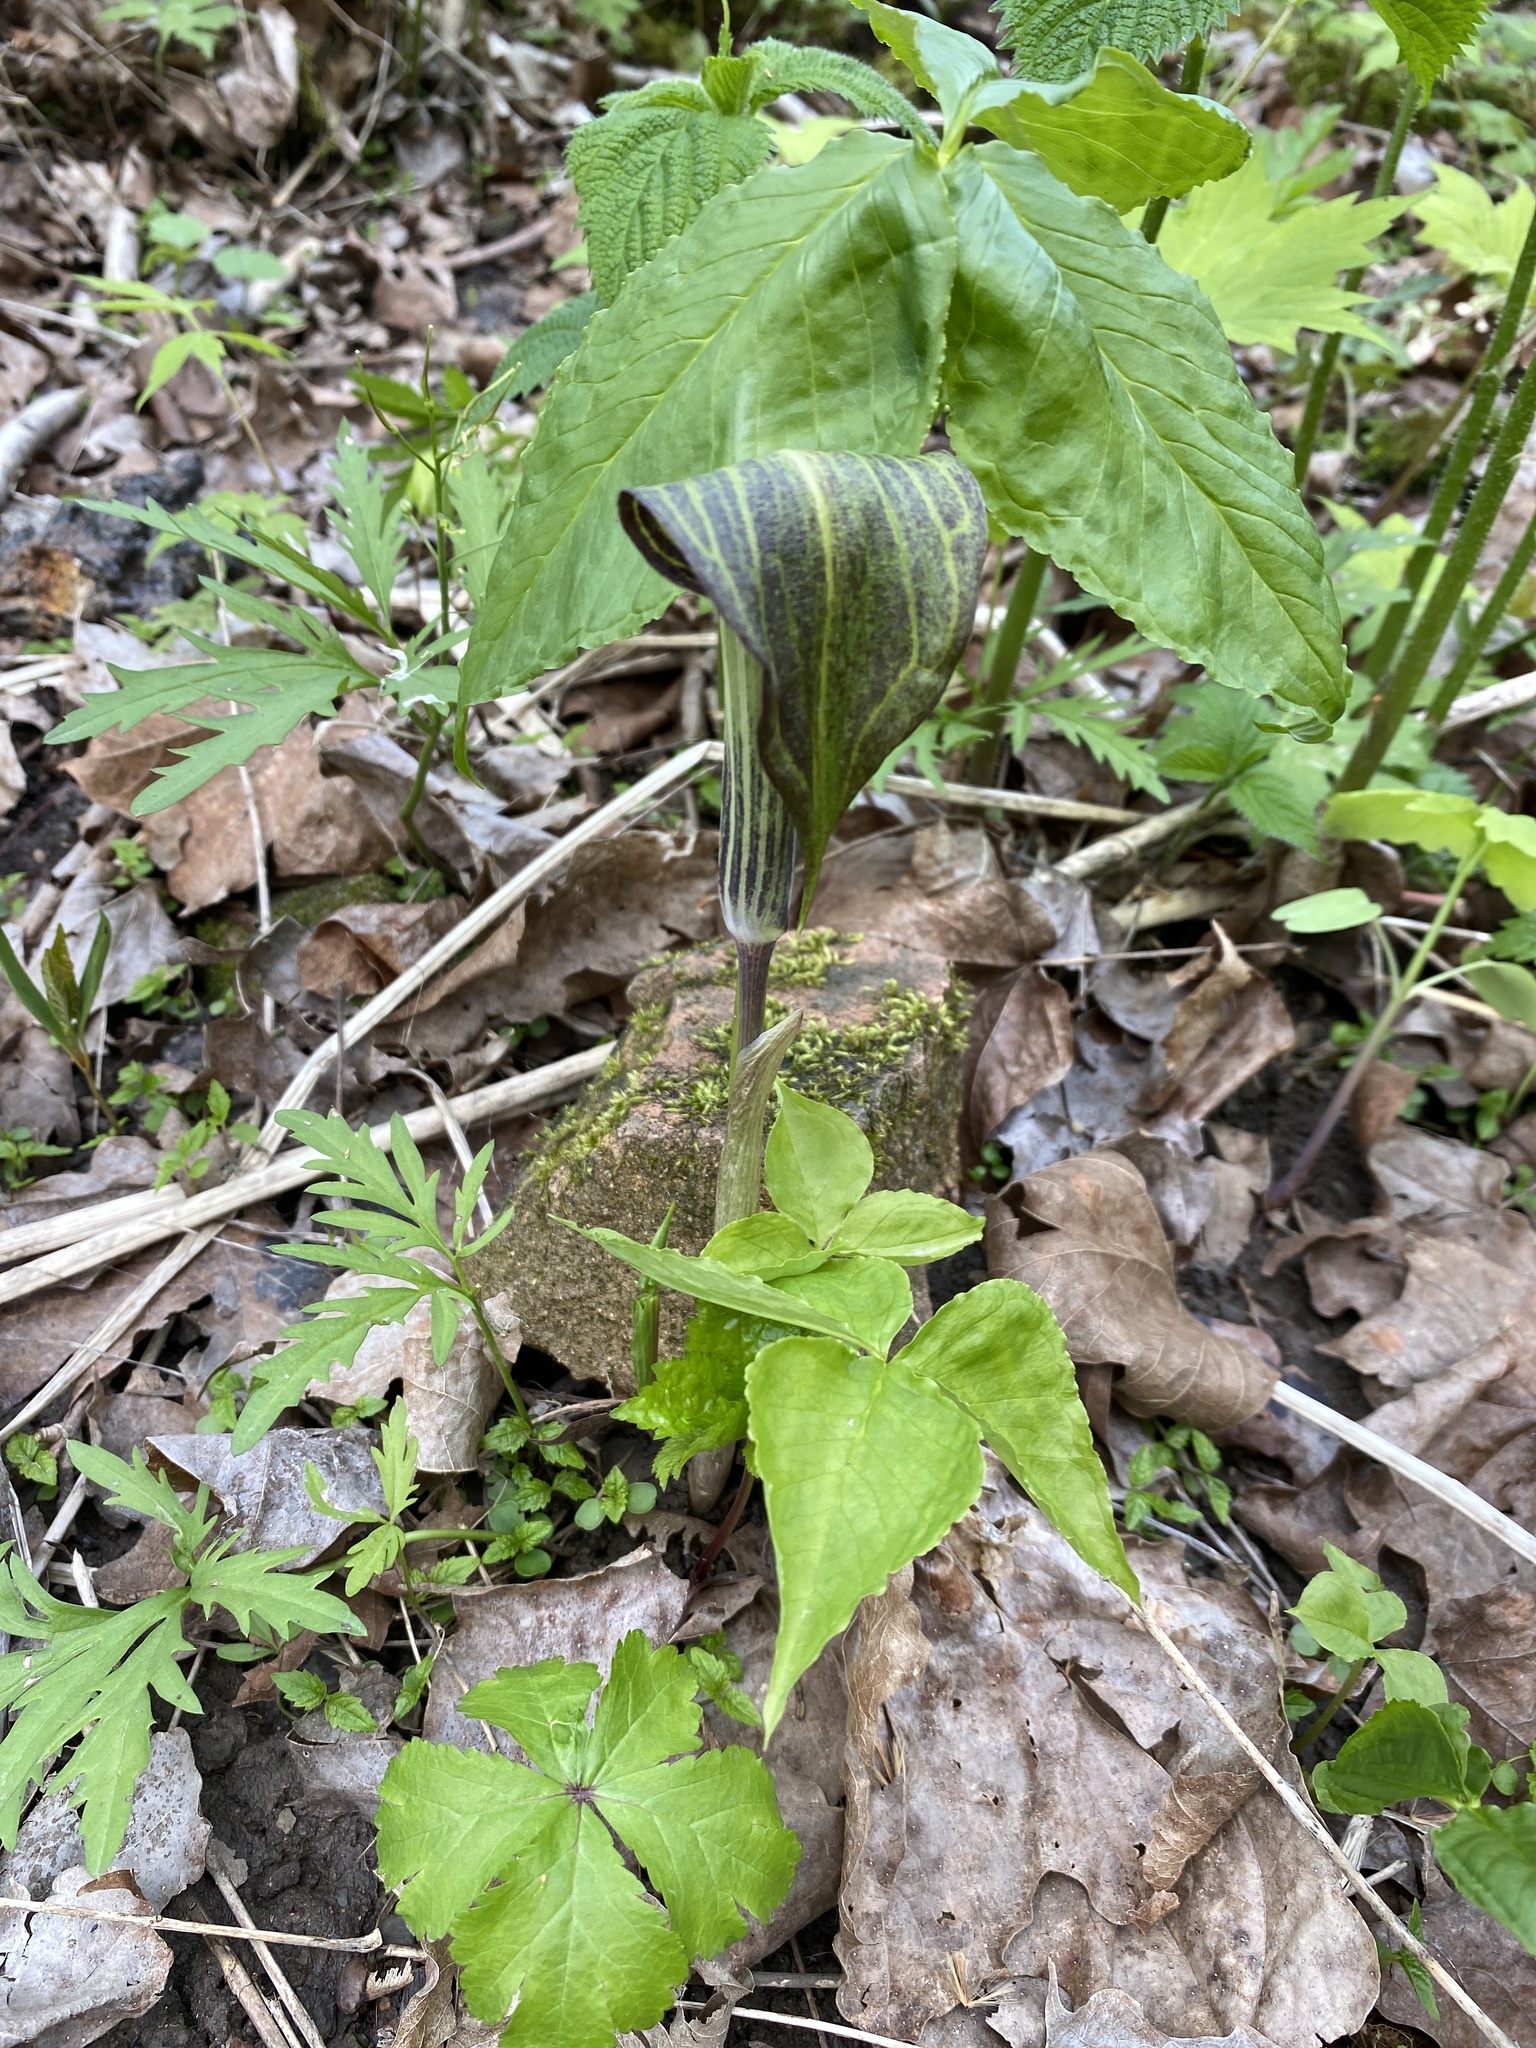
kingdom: Plantae
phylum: Tracheophyta
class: Liliopsida
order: Alismatales
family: Araceae
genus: Arisaema
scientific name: Arisaema triphyllum
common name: Jack-in-the-pulpit
